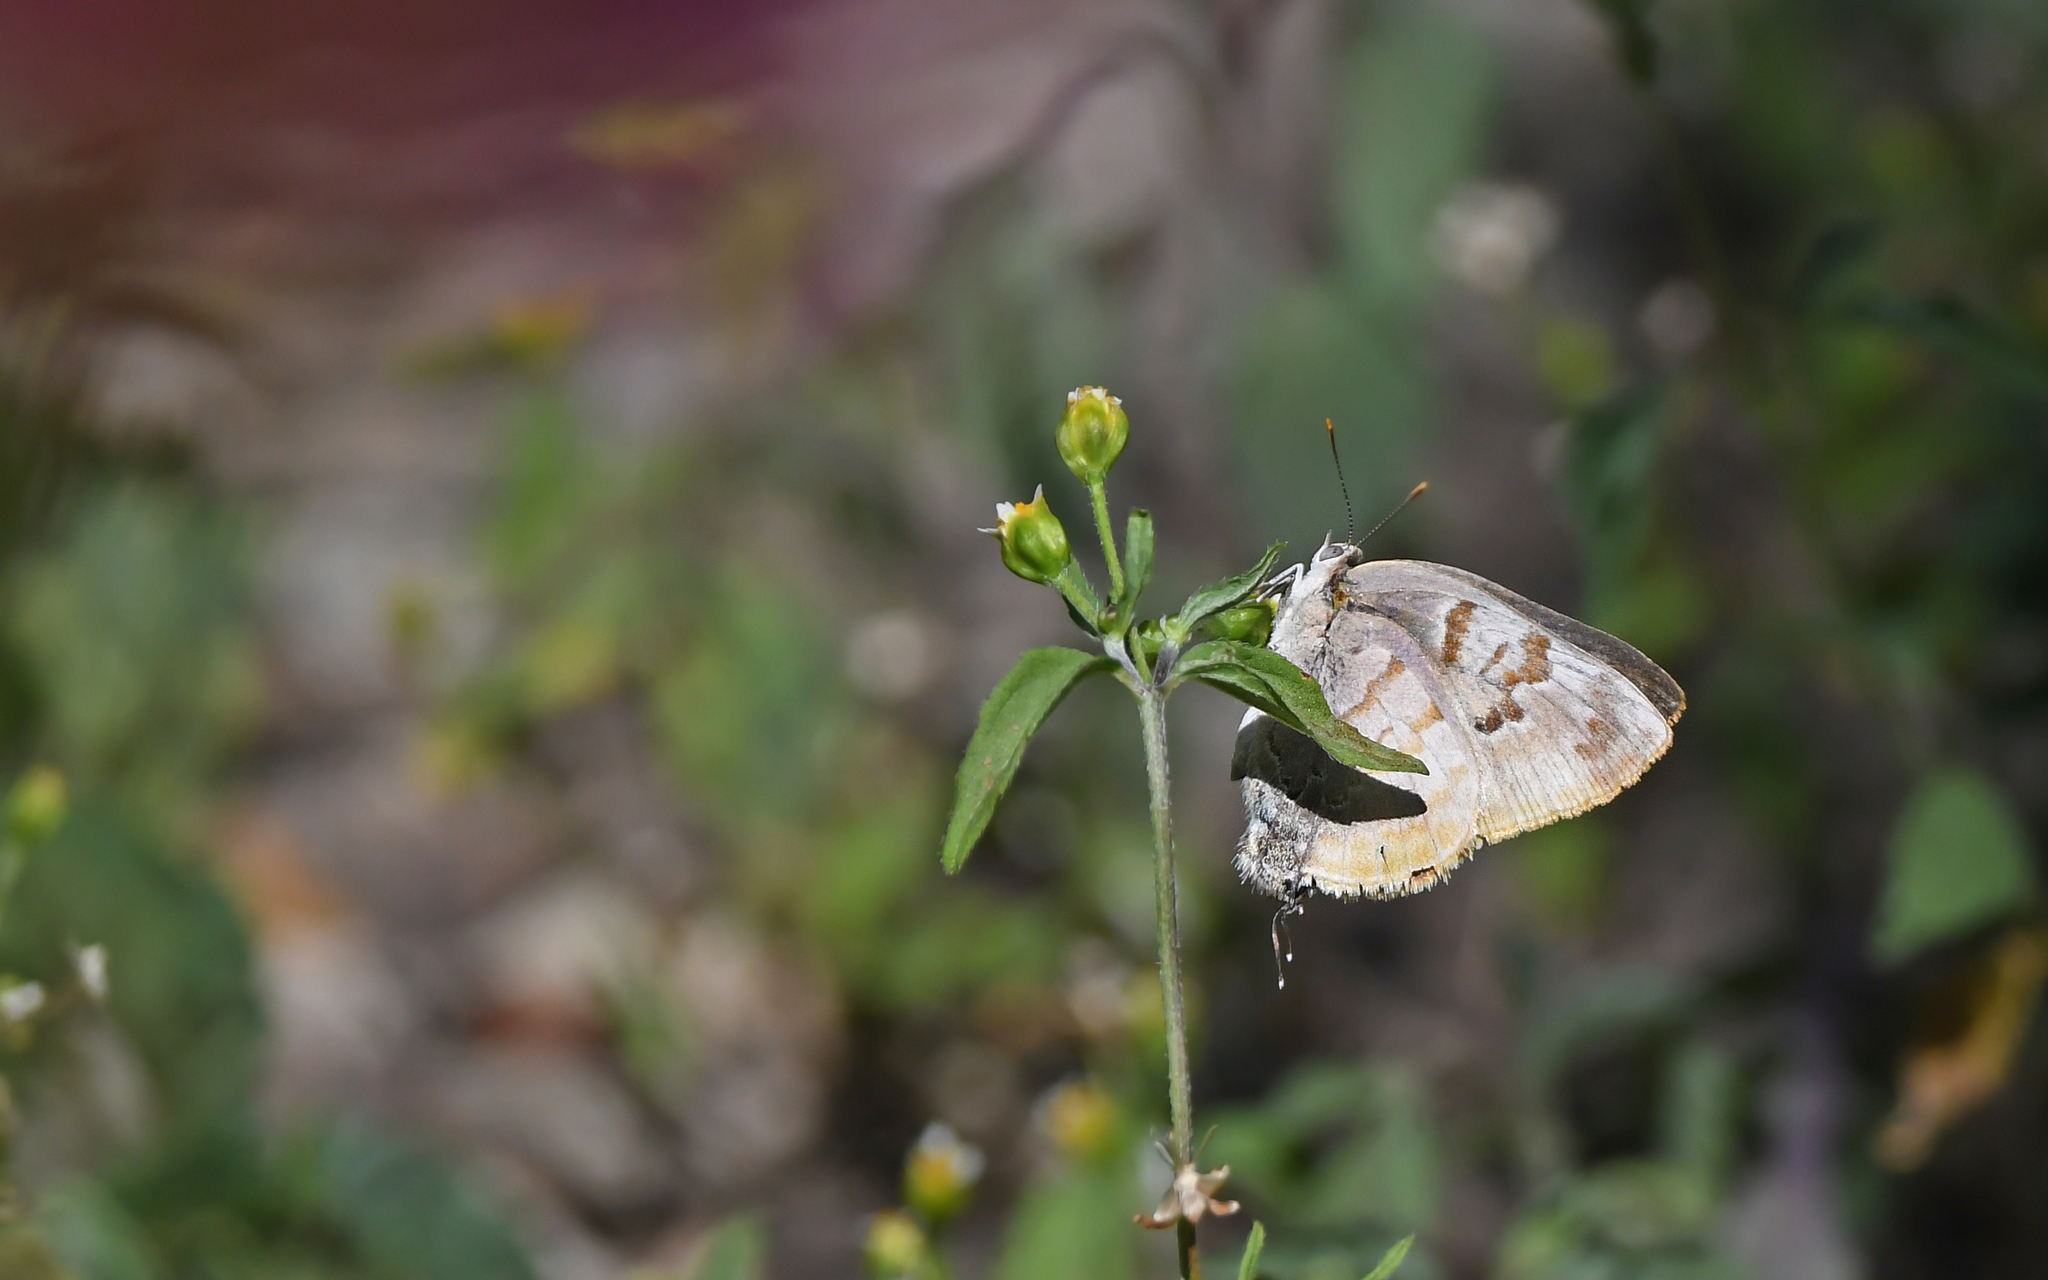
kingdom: Animalia
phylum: Arthropoda
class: Insecta
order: Lepidoptera
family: Lycaenidae
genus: Rekoa
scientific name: Rekoa palegon
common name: Gold-bordered hairstreak
